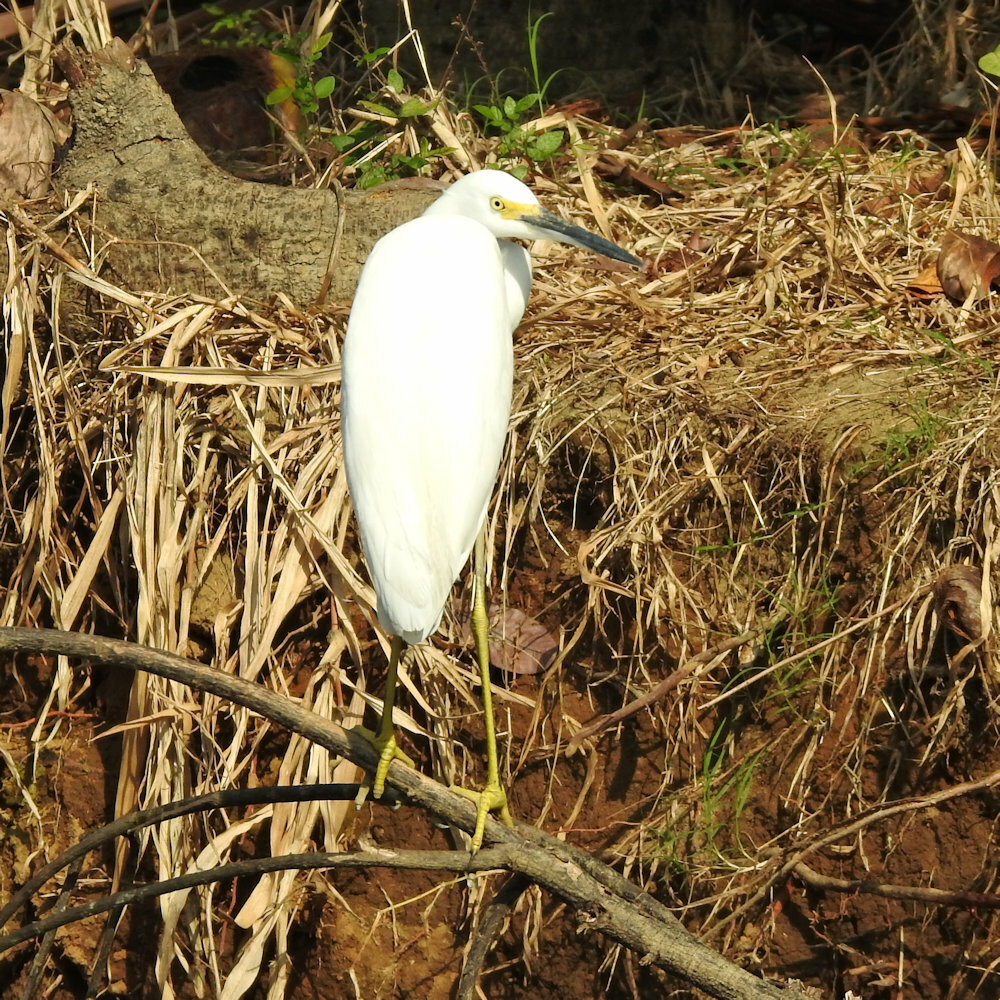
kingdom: Animalia
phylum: Chordata
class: Aves
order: Pelecaniformes
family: Ardeidae
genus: Egretta
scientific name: Egretta thula
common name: Snowy egret
